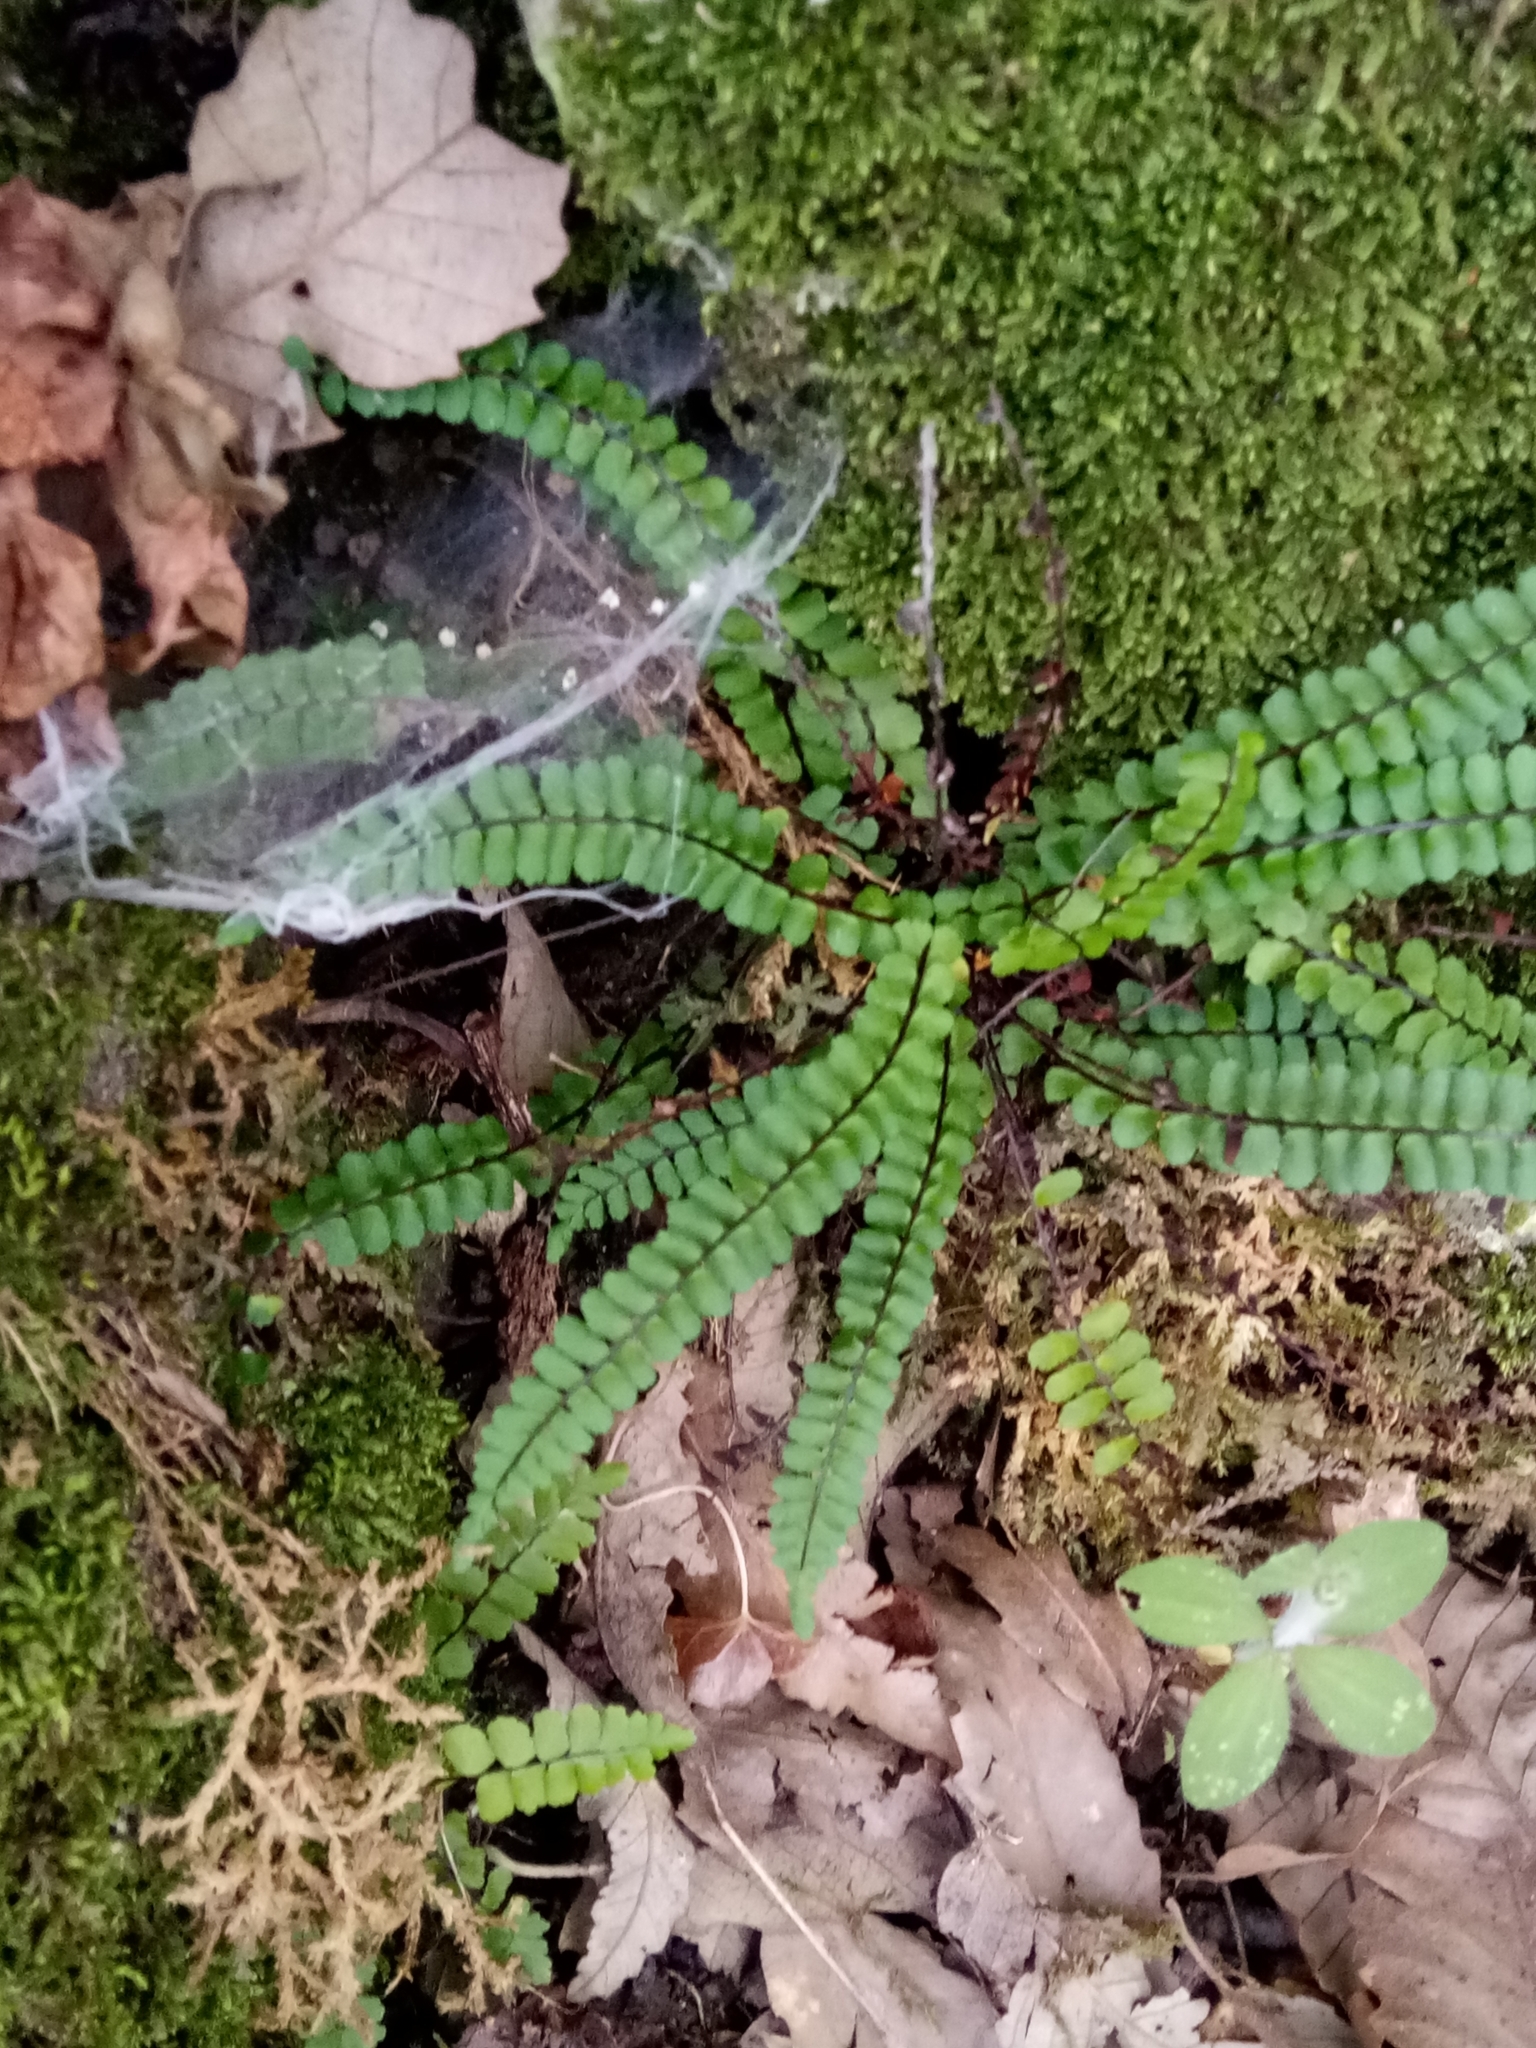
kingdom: Plantae
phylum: Tracheophyta
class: Polypodiopsida
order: Polypodiales
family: Aspleniaceae
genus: Asplenium
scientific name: Asplenium quadrivalens
